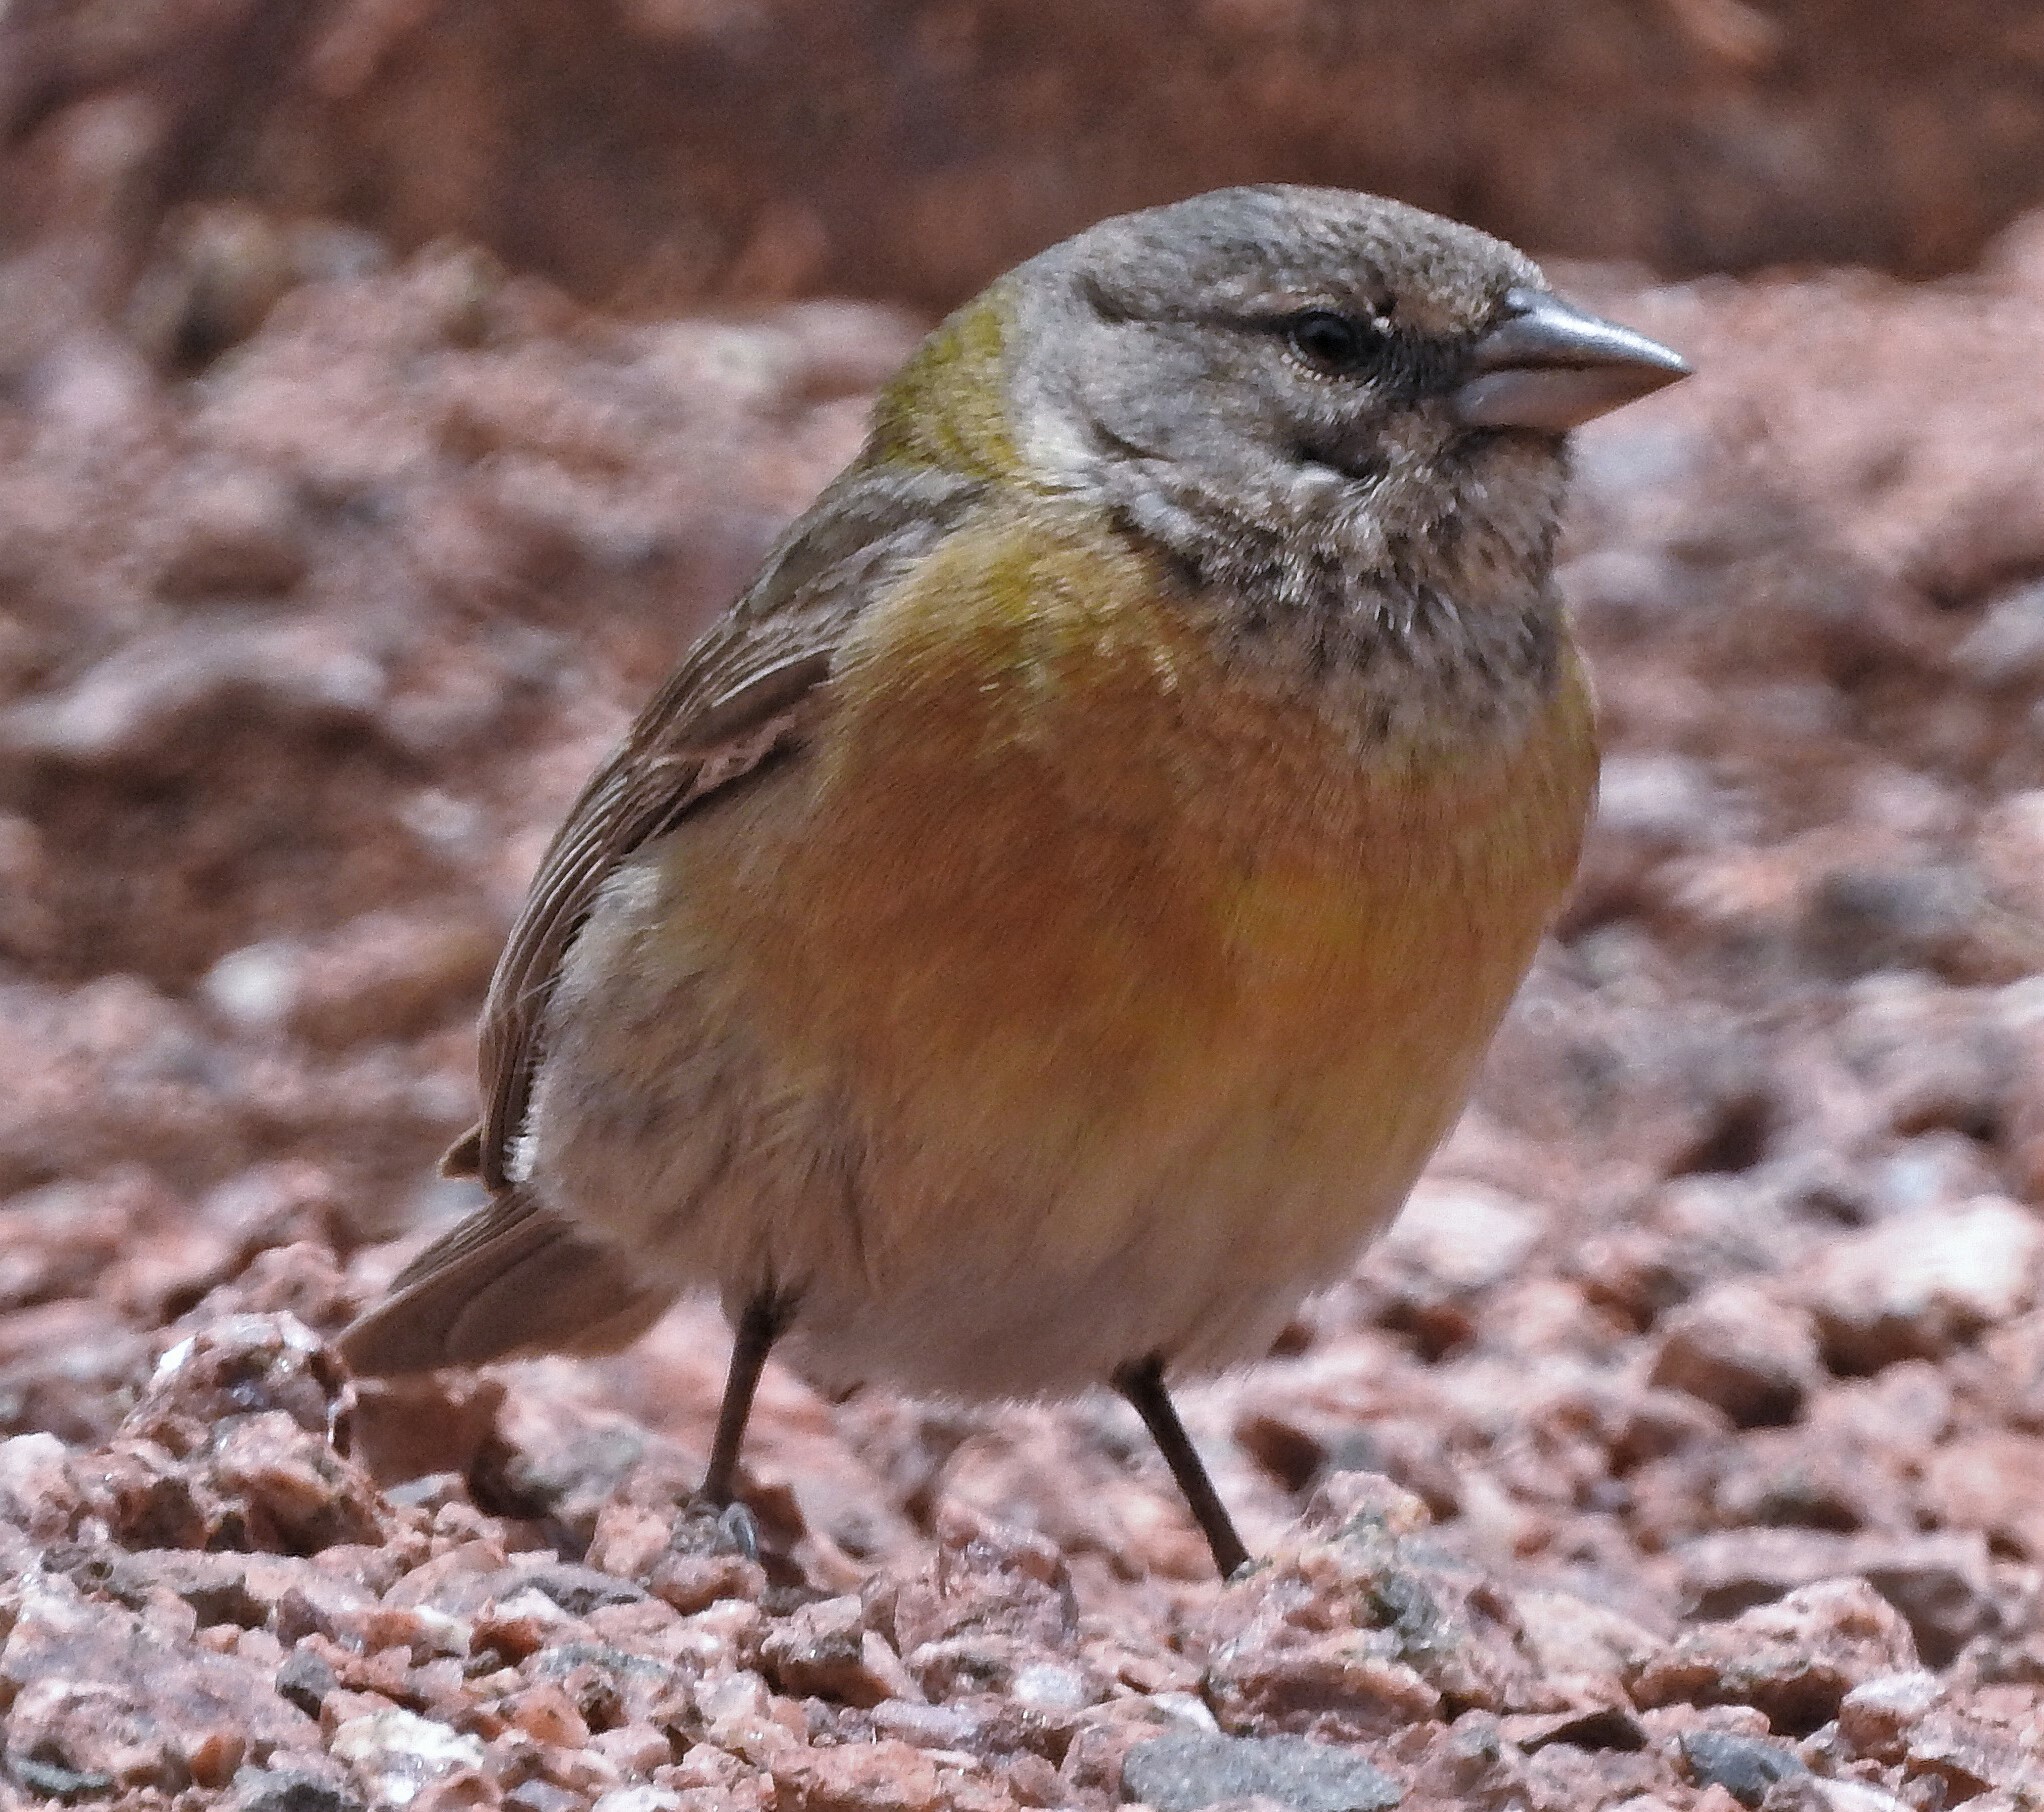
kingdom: Animalia
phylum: Chordata
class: Aves
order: Passeriformes
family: Thraupidae
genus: Phrygilus
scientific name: Phrygilus gayi
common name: Grey-hooded sierra finch
